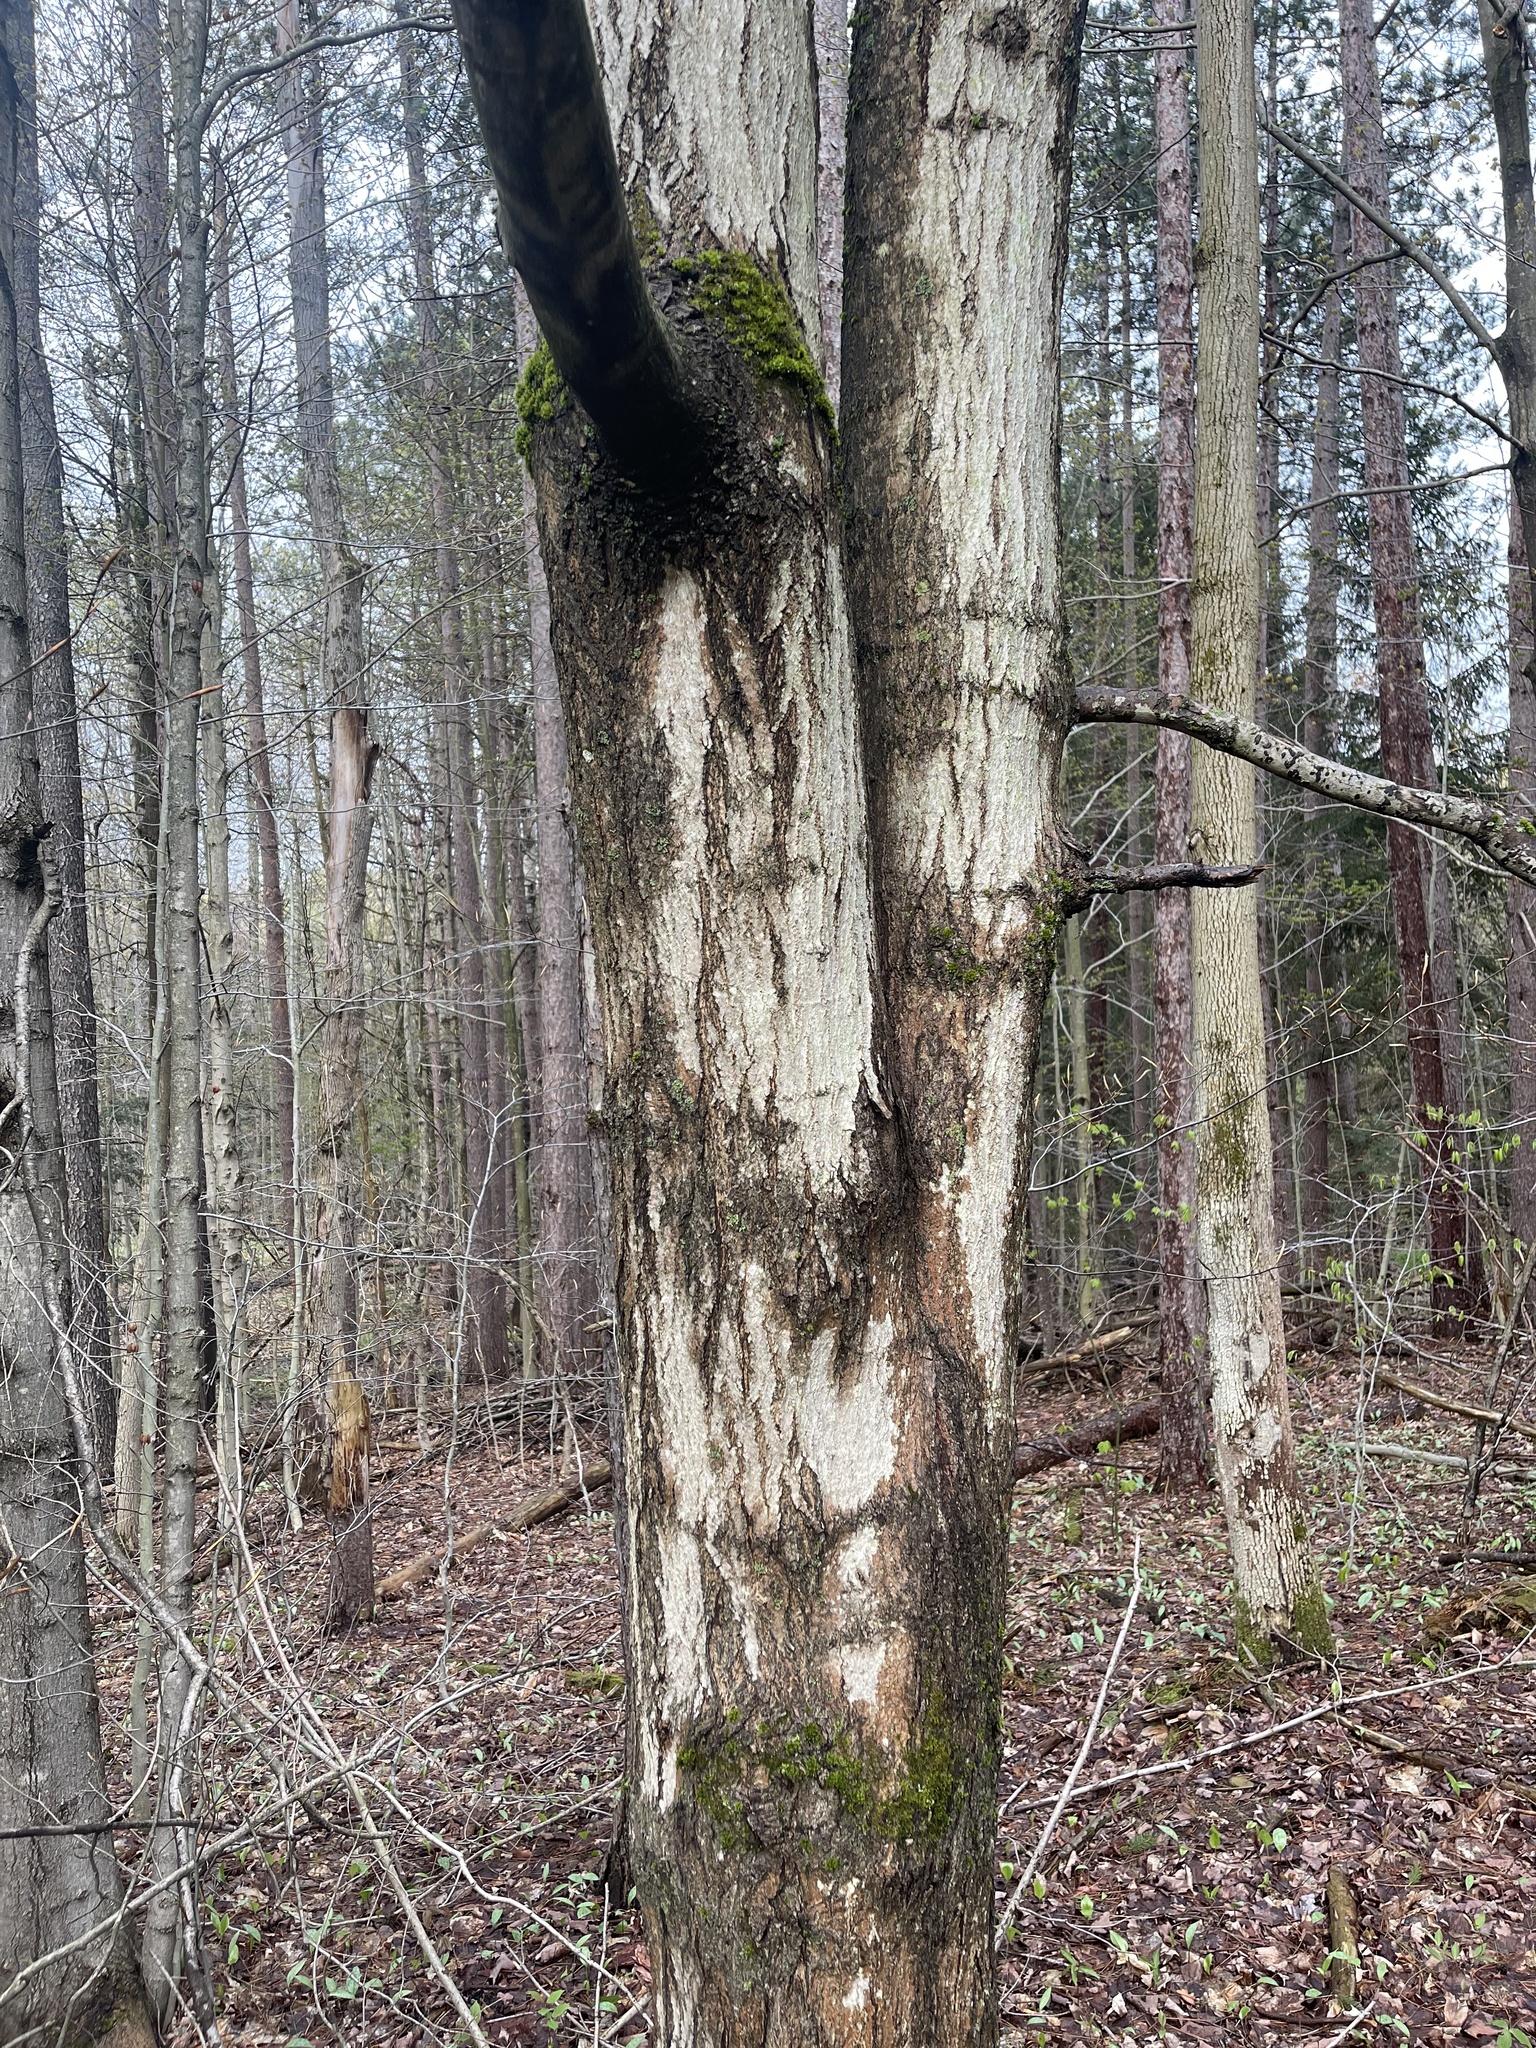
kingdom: Plantae
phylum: Tracheophyta
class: Magnoliopsida
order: Sapindales
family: Sapindaceae
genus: Acer
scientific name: Acer saccharum
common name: Sugar maple
